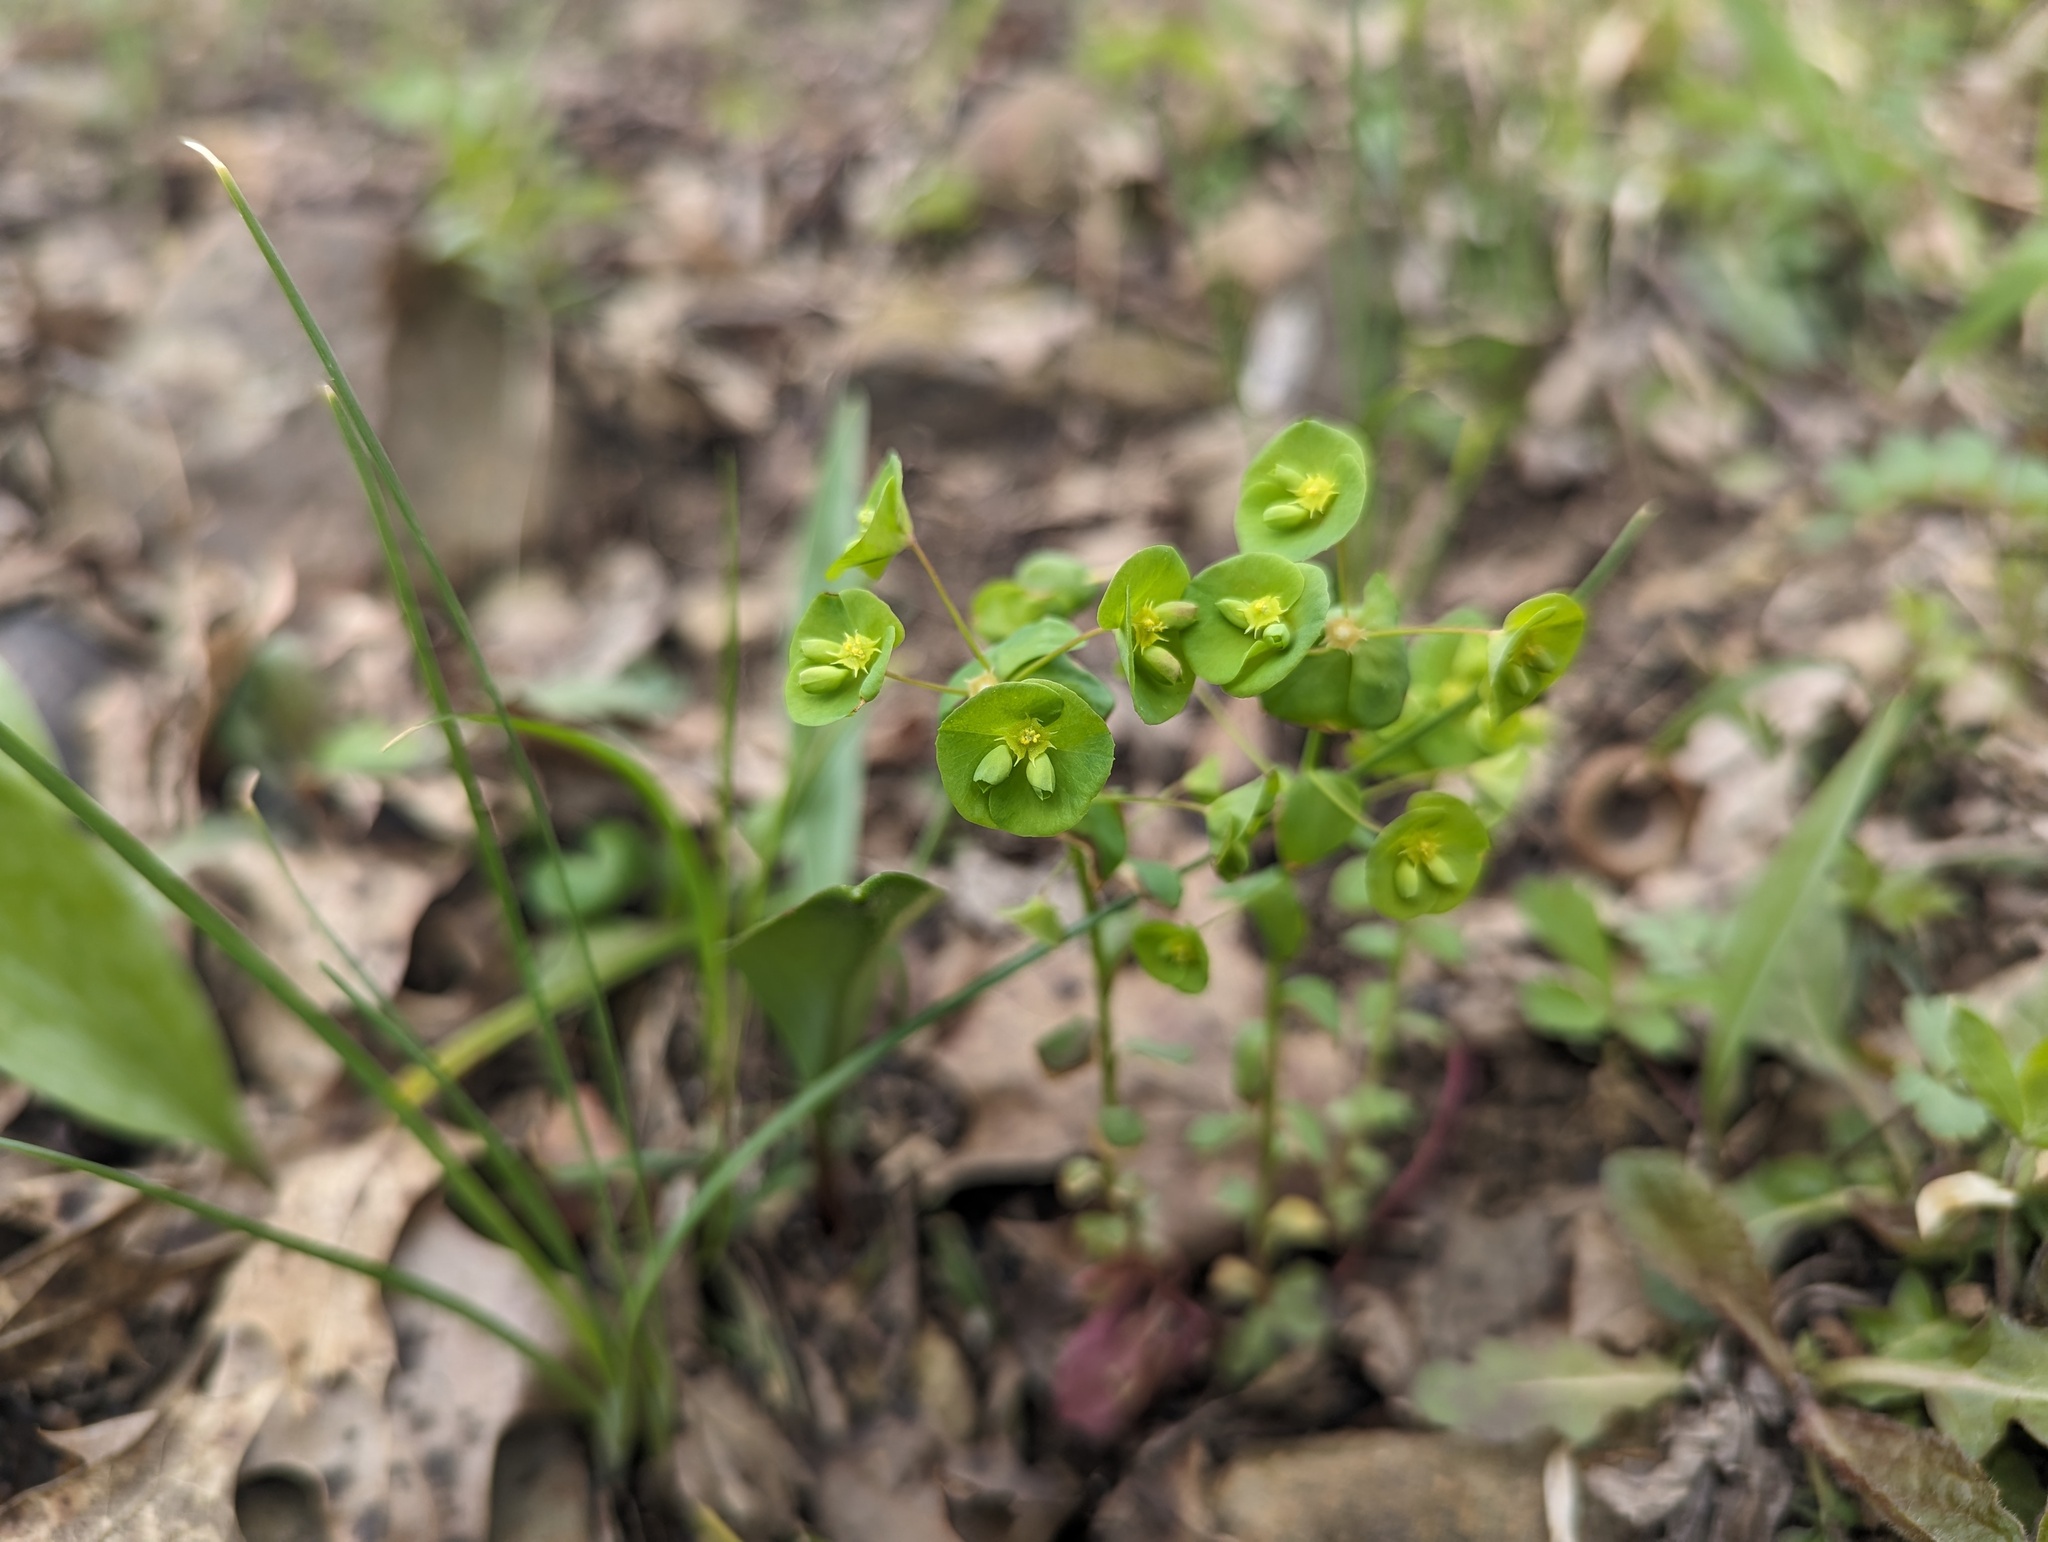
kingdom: Plantae
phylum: Tracheophyta
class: Magnoliopsida
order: Malpighiales
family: Euphorbiaceae
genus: Euphorbia
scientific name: Euphorbia commutata
